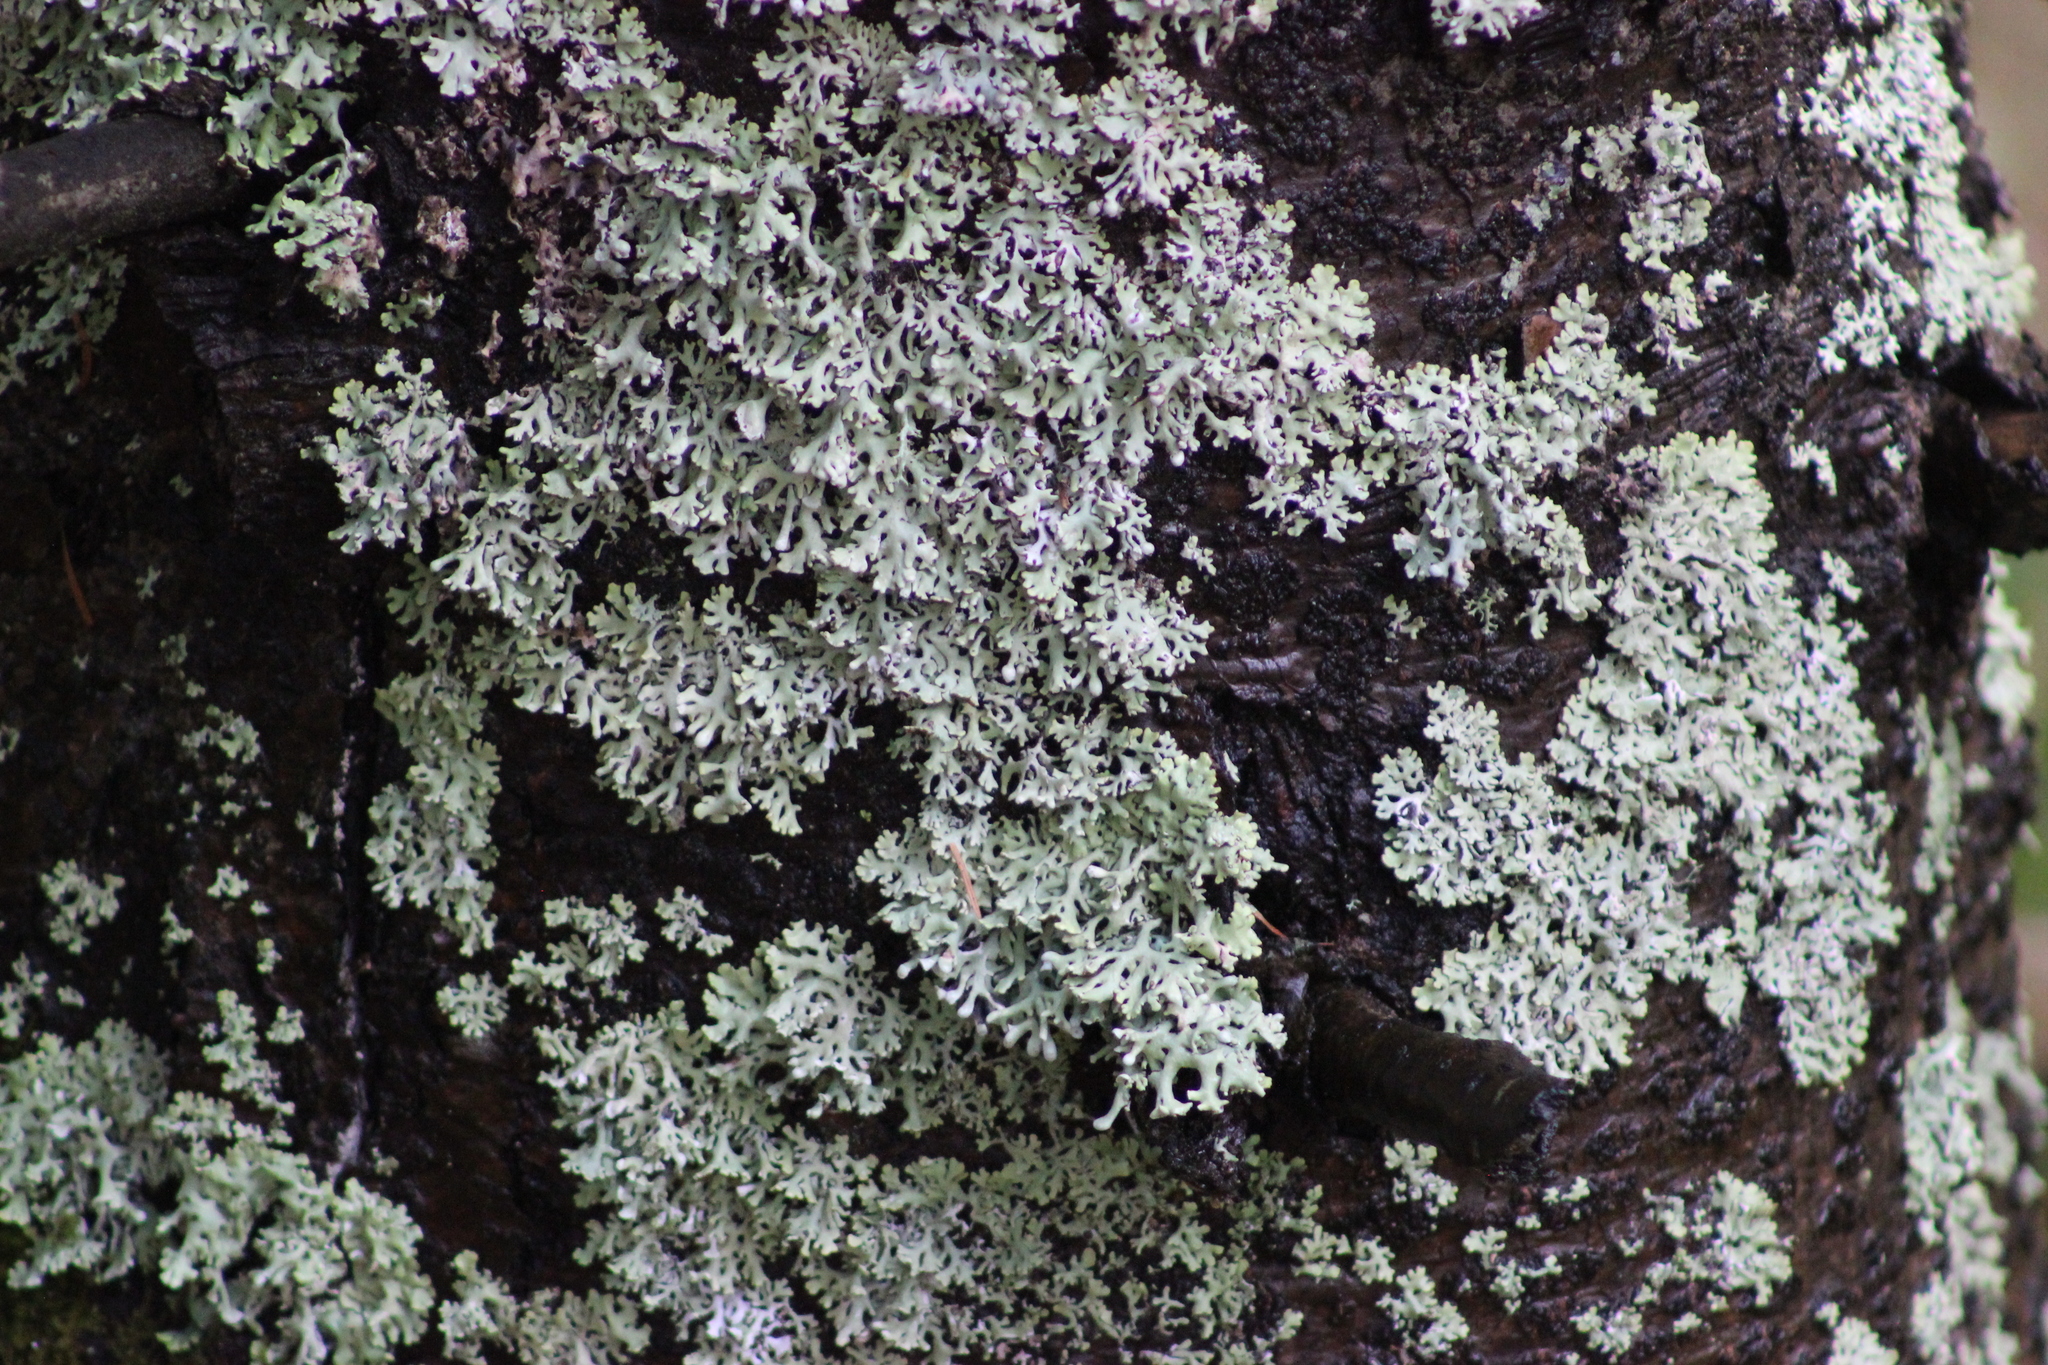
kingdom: Fungi
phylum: Ascomycota
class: Lecanoromycetes
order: Lecanorales
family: Parmeliaceae
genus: Hypogymnia
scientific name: Hypogymnia physodes
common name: Dark crottle
